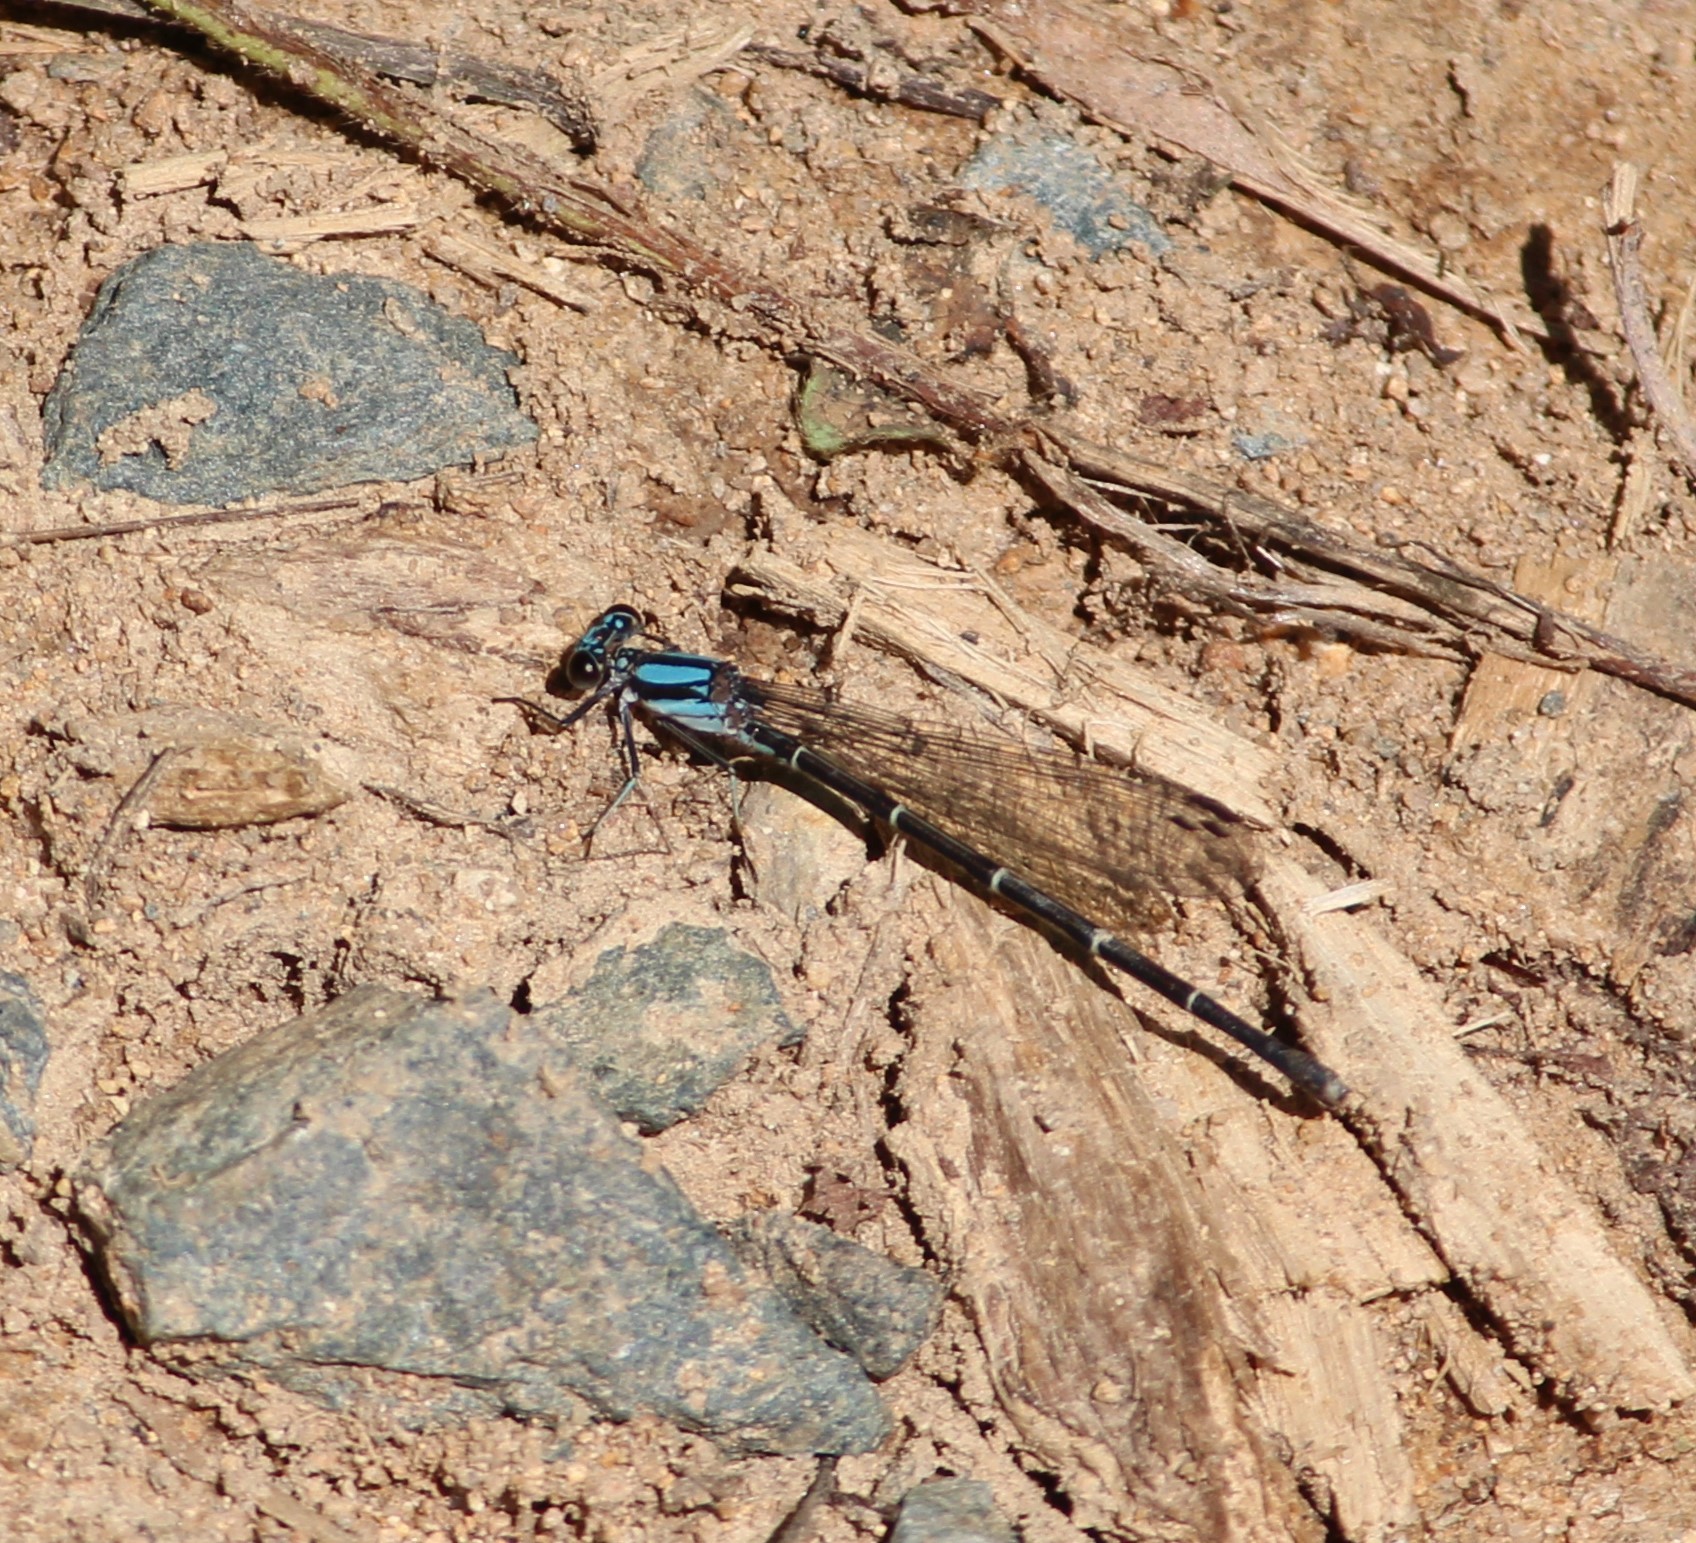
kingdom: Animalia
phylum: Arthropoda
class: Insecta
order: Odonata
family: Coenagrionidae
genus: Argia
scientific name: Argia tibialis
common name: Blue-tipped dancer
